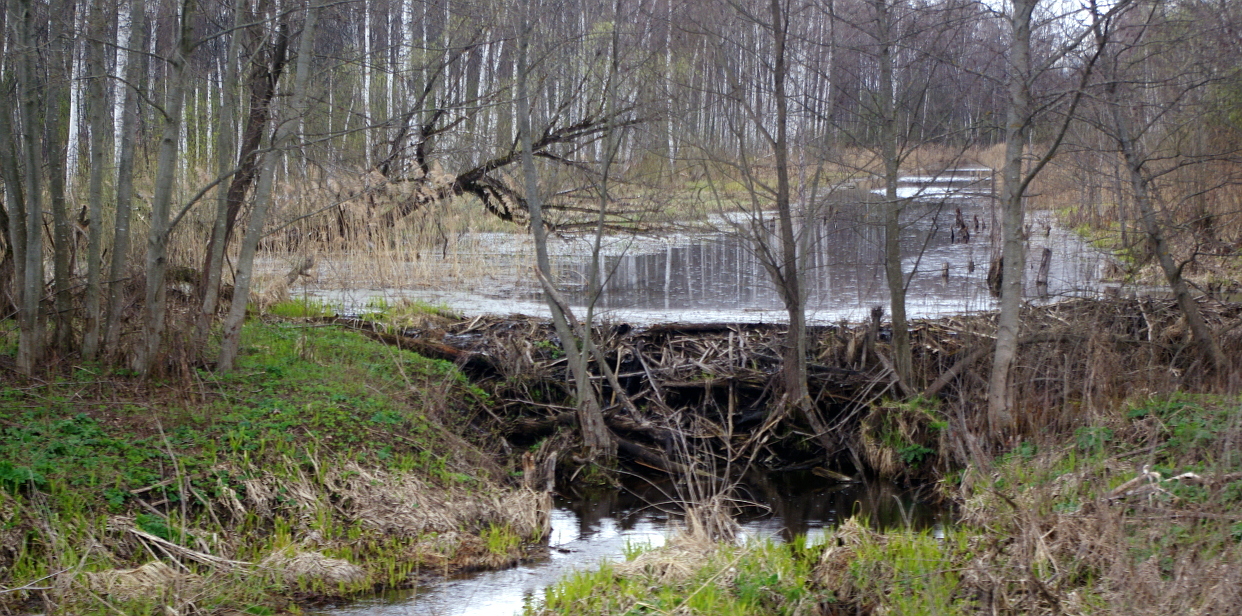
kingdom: Animalia
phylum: Chordata
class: Mammalia
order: Rodentia
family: Castoridae
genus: Castor
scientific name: Castor fiber
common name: Eurasian beaver
